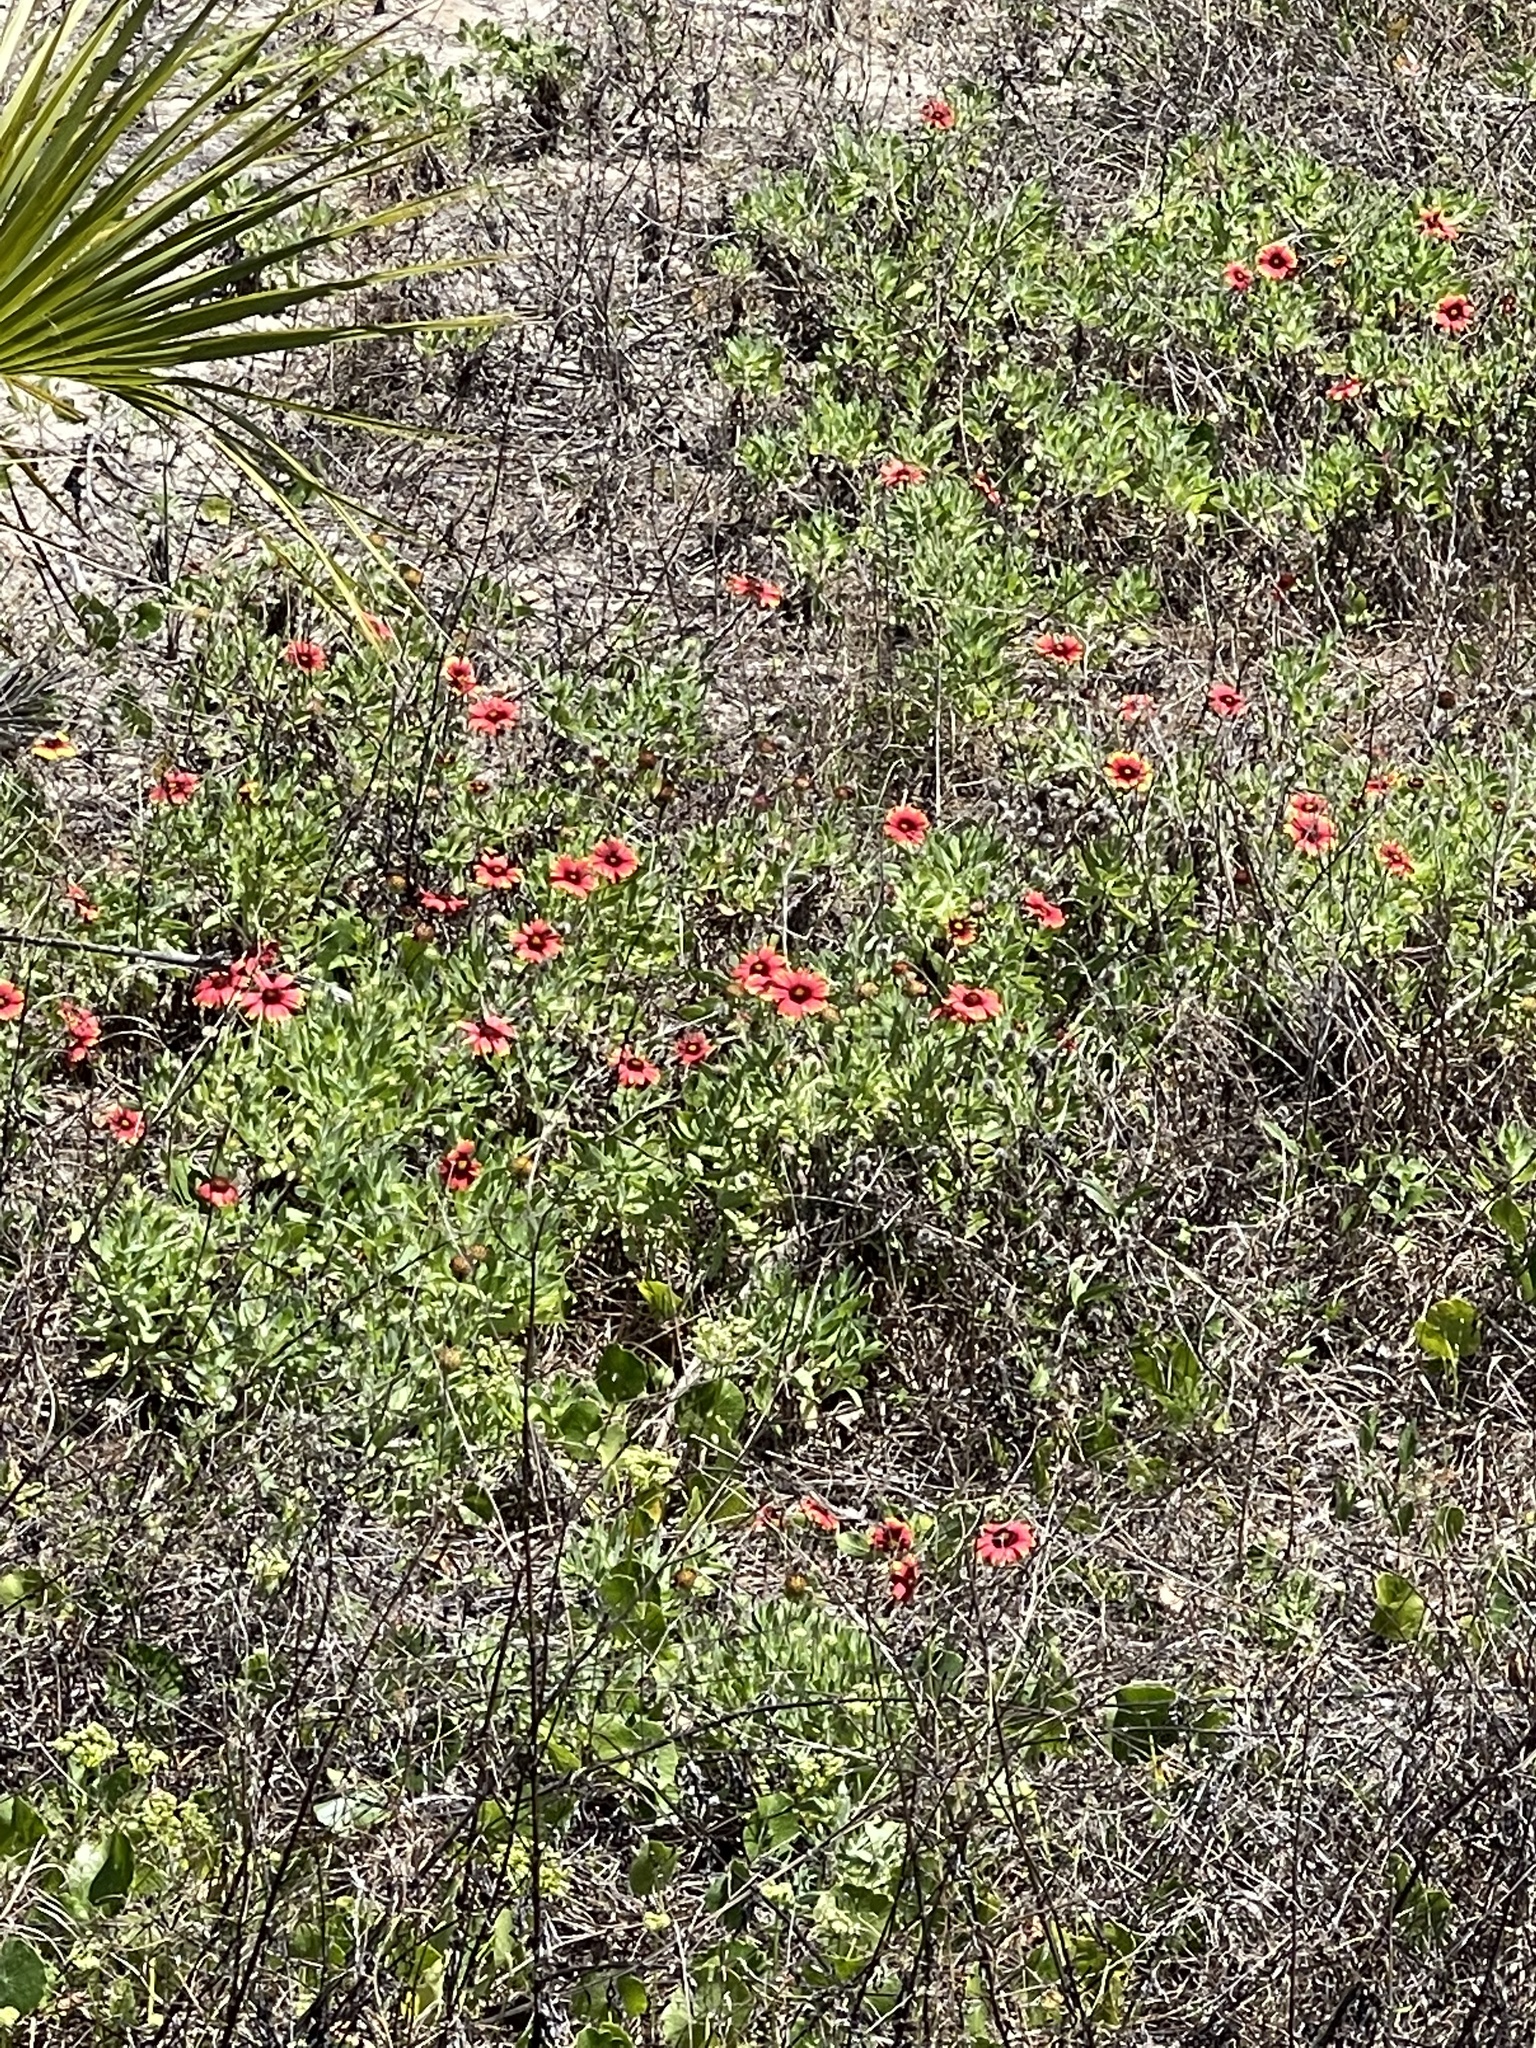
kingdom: Plantae
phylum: Tracheophyta
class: Magnoliopsida
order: Asterales
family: Asteraceae
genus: Gaillardia
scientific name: Gaillardia pulchella
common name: Firewheel
